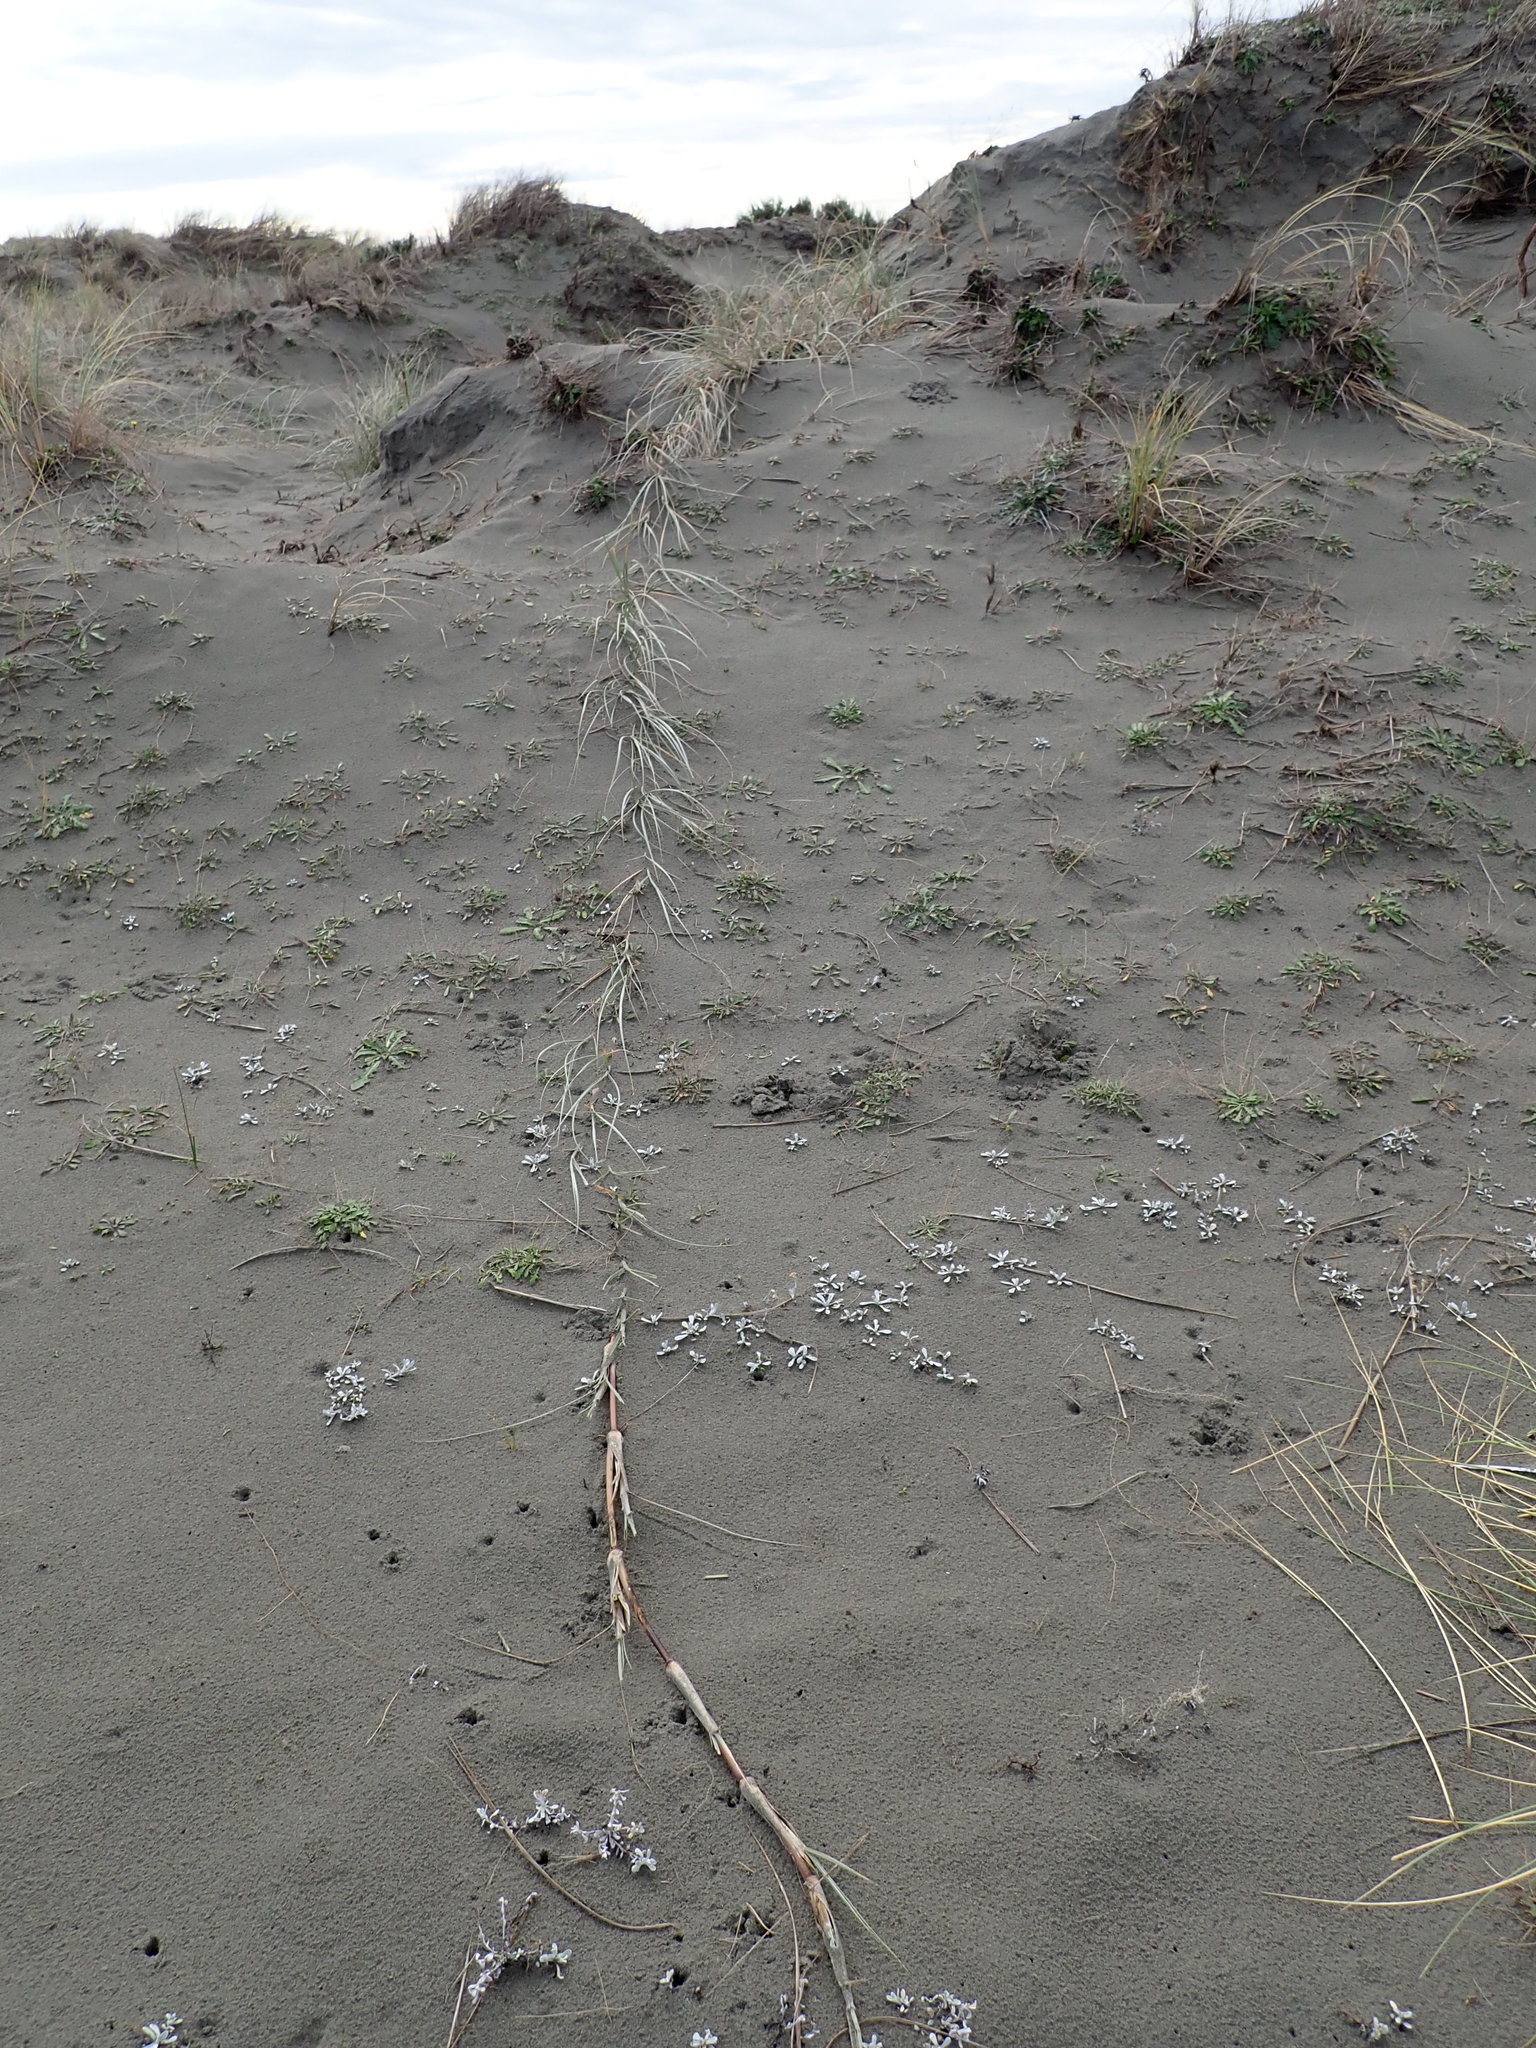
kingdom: Plantae
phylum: Tracheophyta
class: Liliopsida
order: Poales
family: Poaceae
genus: Spinifex
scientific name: Spinifex sericeus
